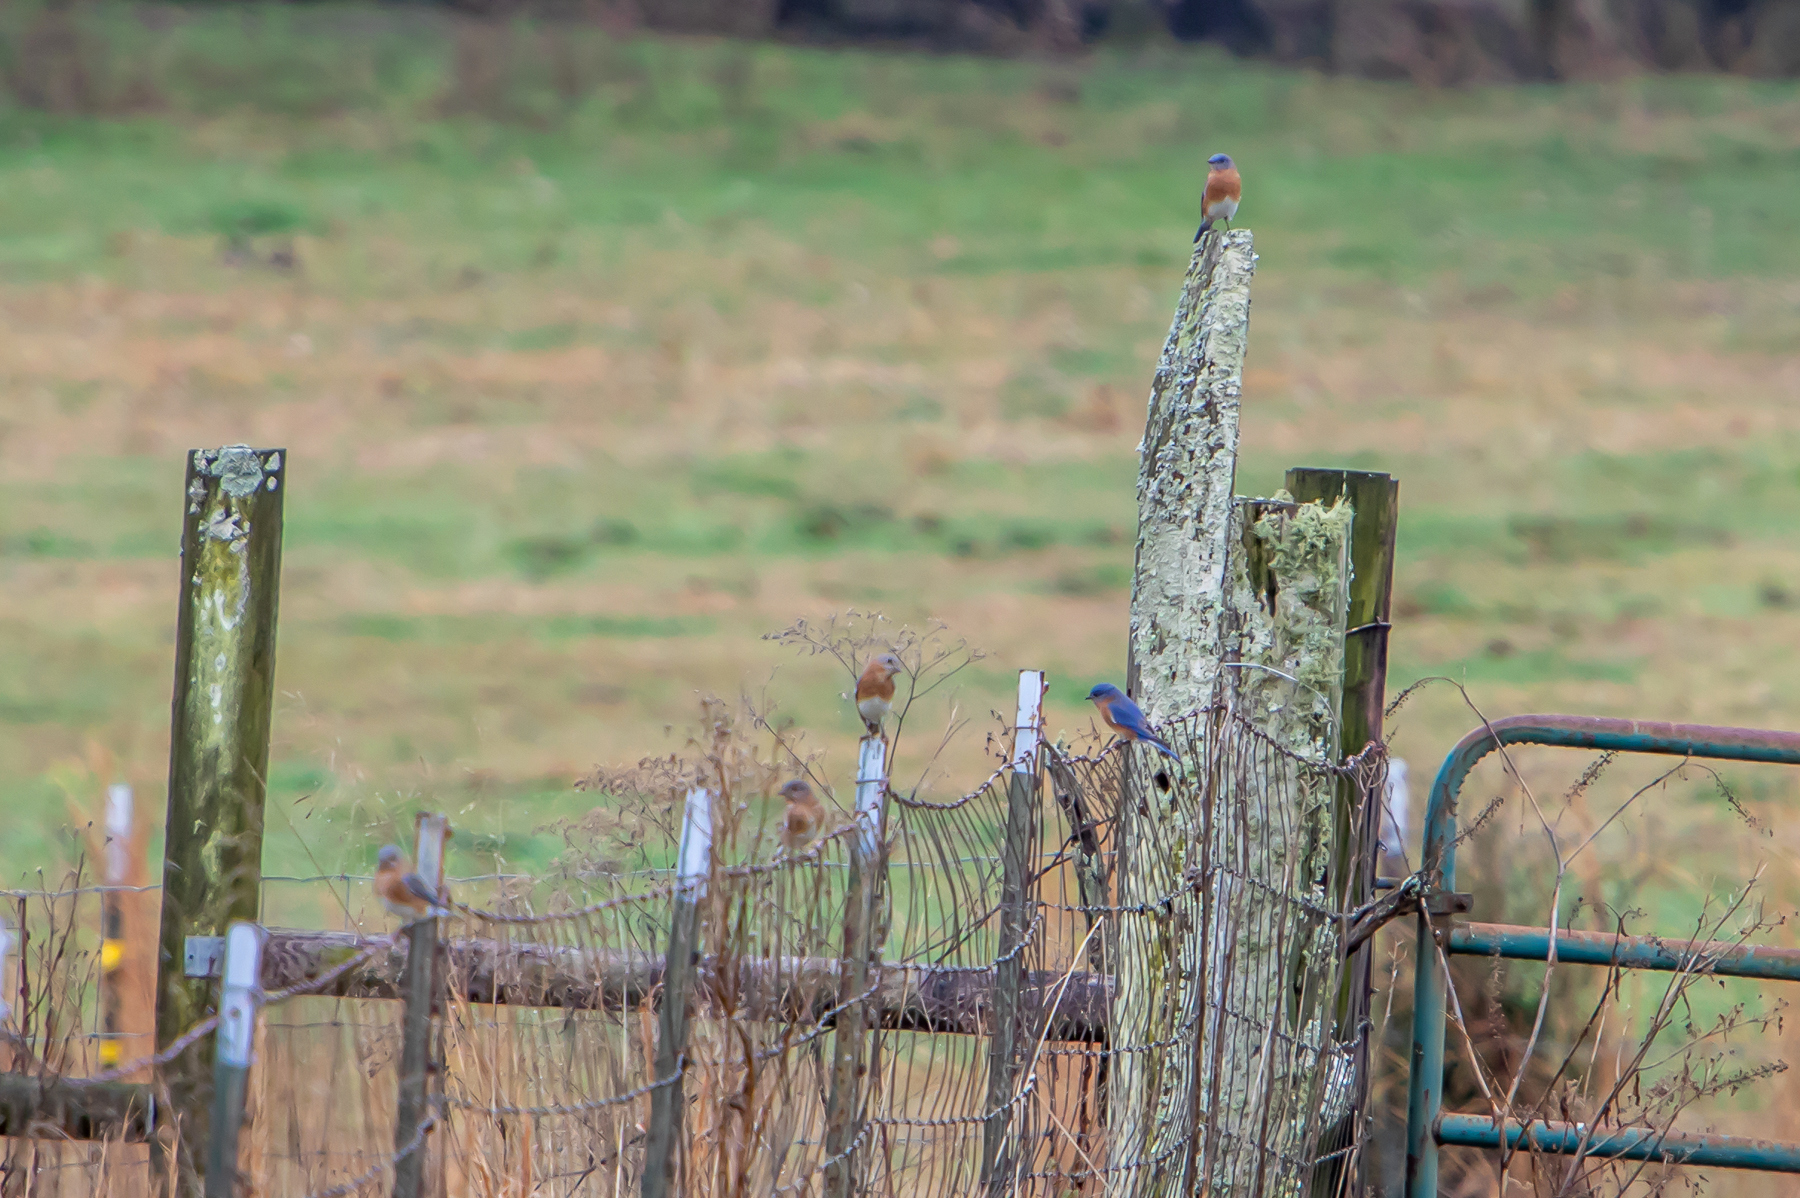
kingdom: Animalia
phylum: Chordata
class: Aves
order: Passeriformes
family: Turdidae
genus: Sialia
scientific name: Sialia sialis
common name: Eastern bluebird
